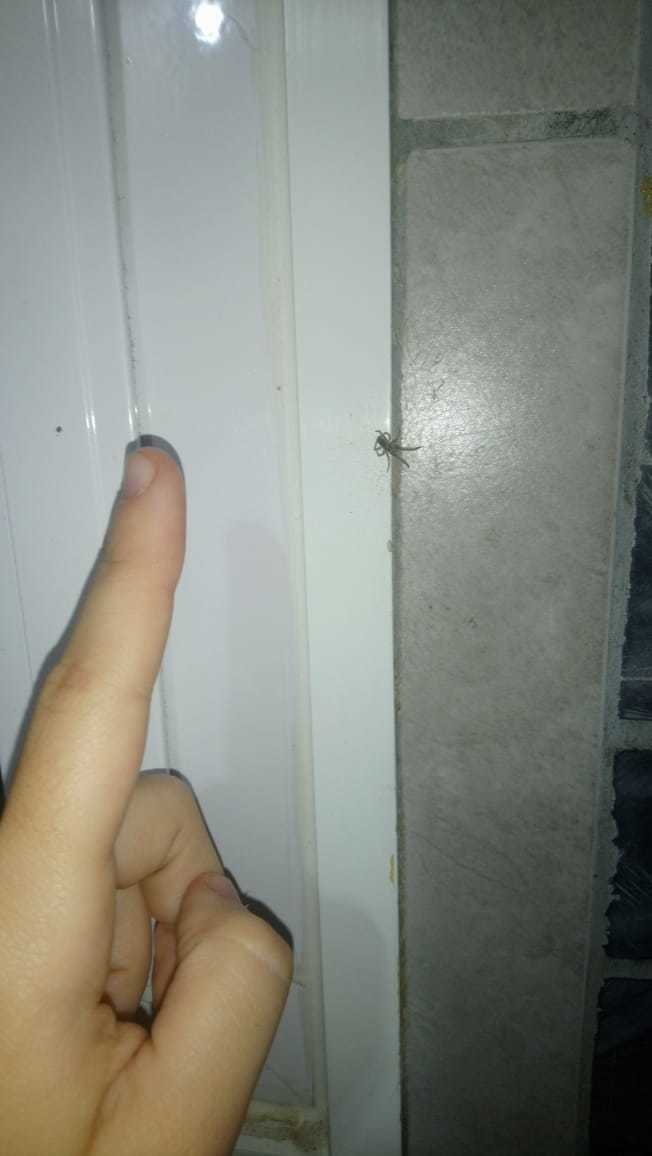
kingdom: Animalia
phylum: Arthropoda
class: Arachnida
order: Araneae
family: Filistatidae
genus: Kukulcania
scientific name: Kukulcania hibernalis
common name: Crevice weaver
